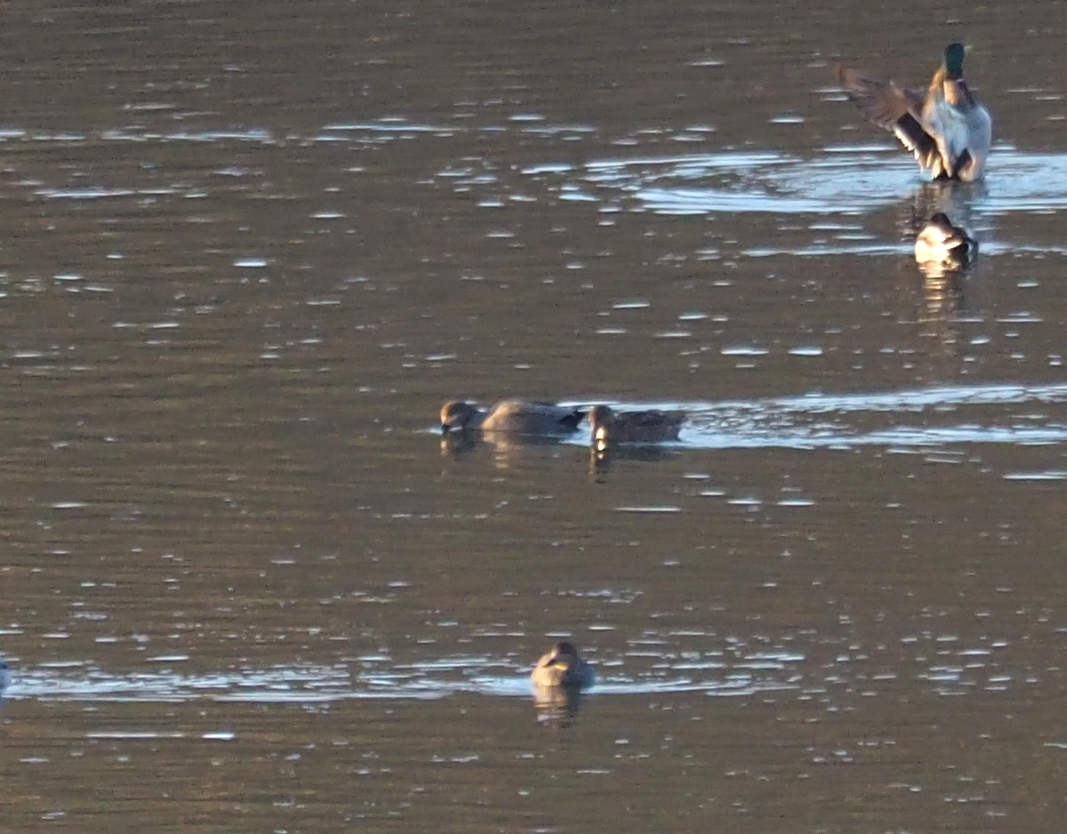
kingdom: Animalia
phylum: Chordata
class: Aves
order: Anseriformes
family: Anatidae
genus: Mareca
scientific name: Mareca strepera
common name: Gadwall
